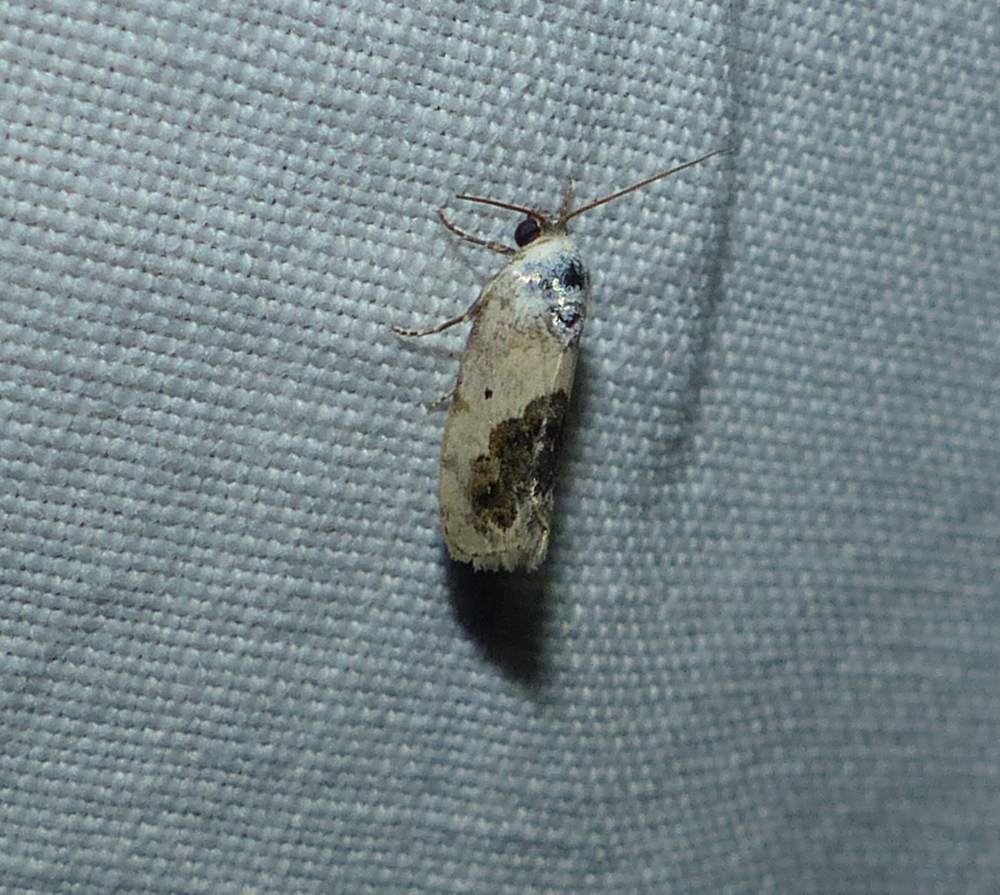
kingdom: Animalia
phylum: Arthropoda
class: Insecta
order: Lepidoptera
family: Noctuidae
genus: Acontia
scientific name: Acontia erastrioides
